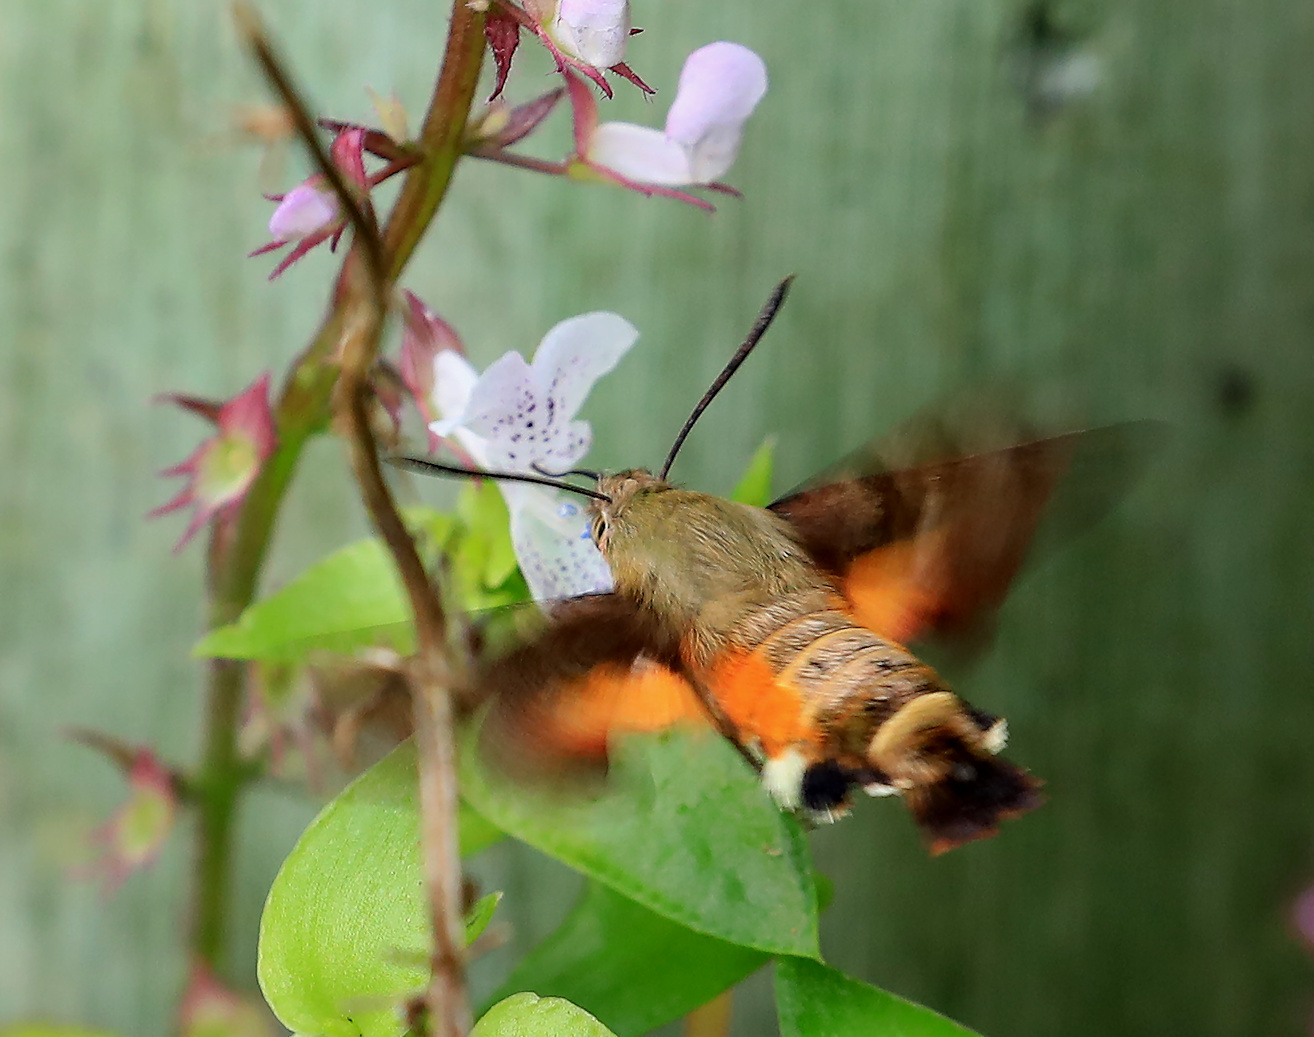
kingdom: Animalia
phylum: Arthropoda
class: Insecta
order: Lepidoptera
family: Sphingidae
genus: Macroglossum
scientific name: Macroglossum trochilus
